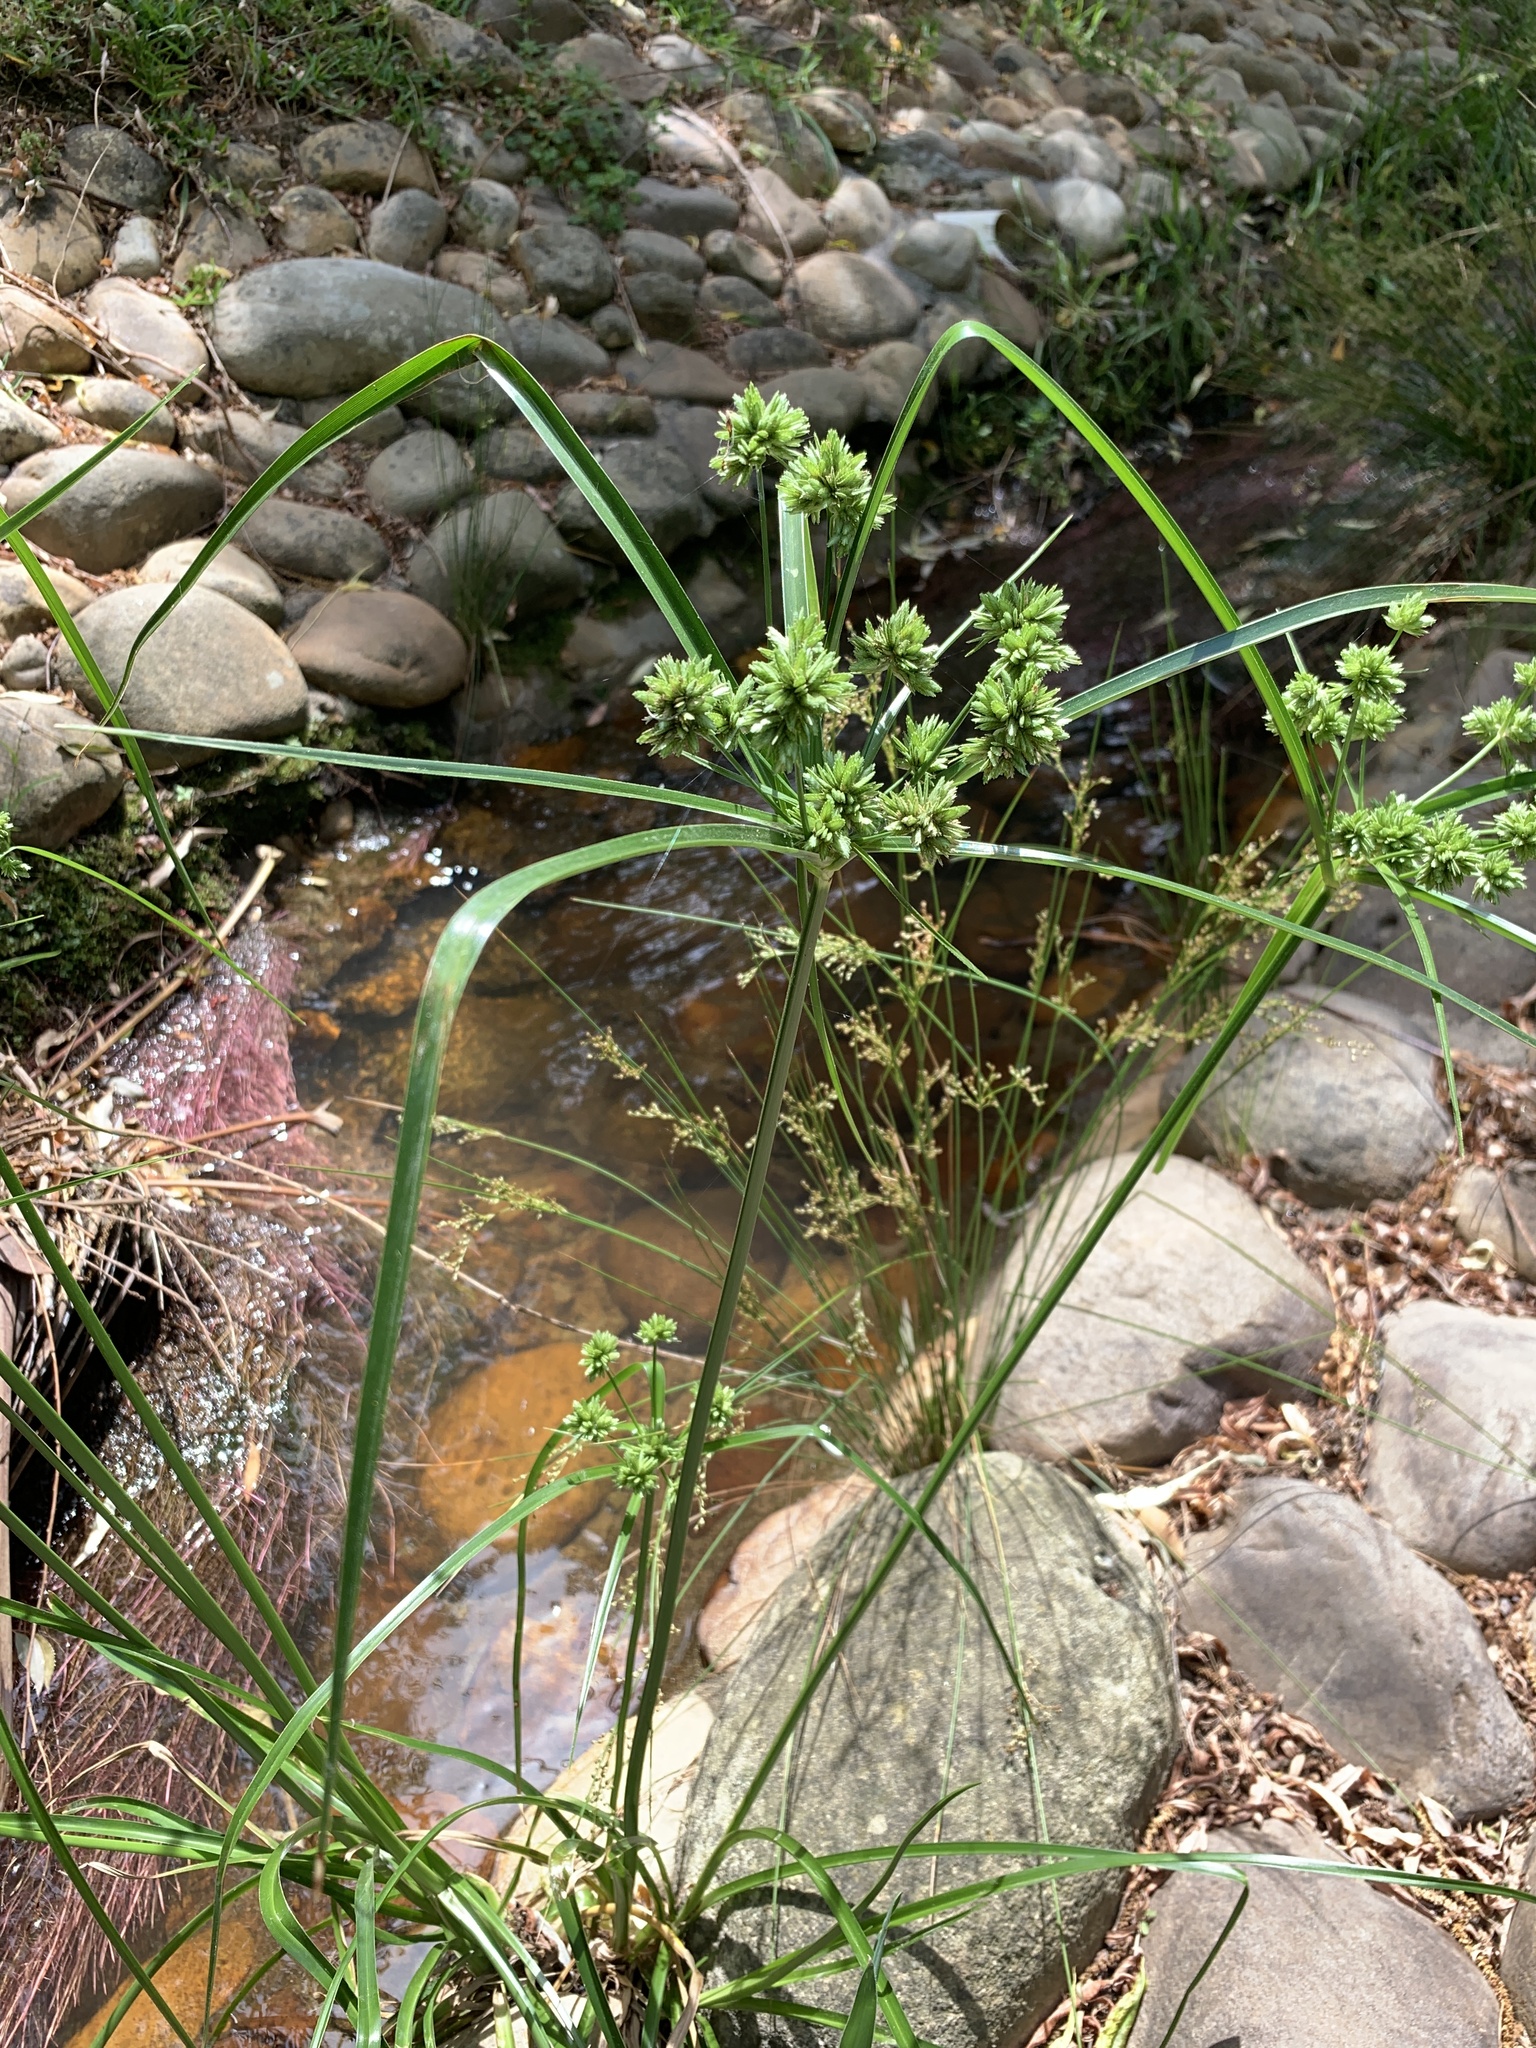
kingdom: Plantae
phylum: Tracheophyta
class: Liliopsida
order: Poales
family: Cyperaceae
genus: Cyperus
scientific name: Cyperus eragrostis
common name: Tall flatsedge
